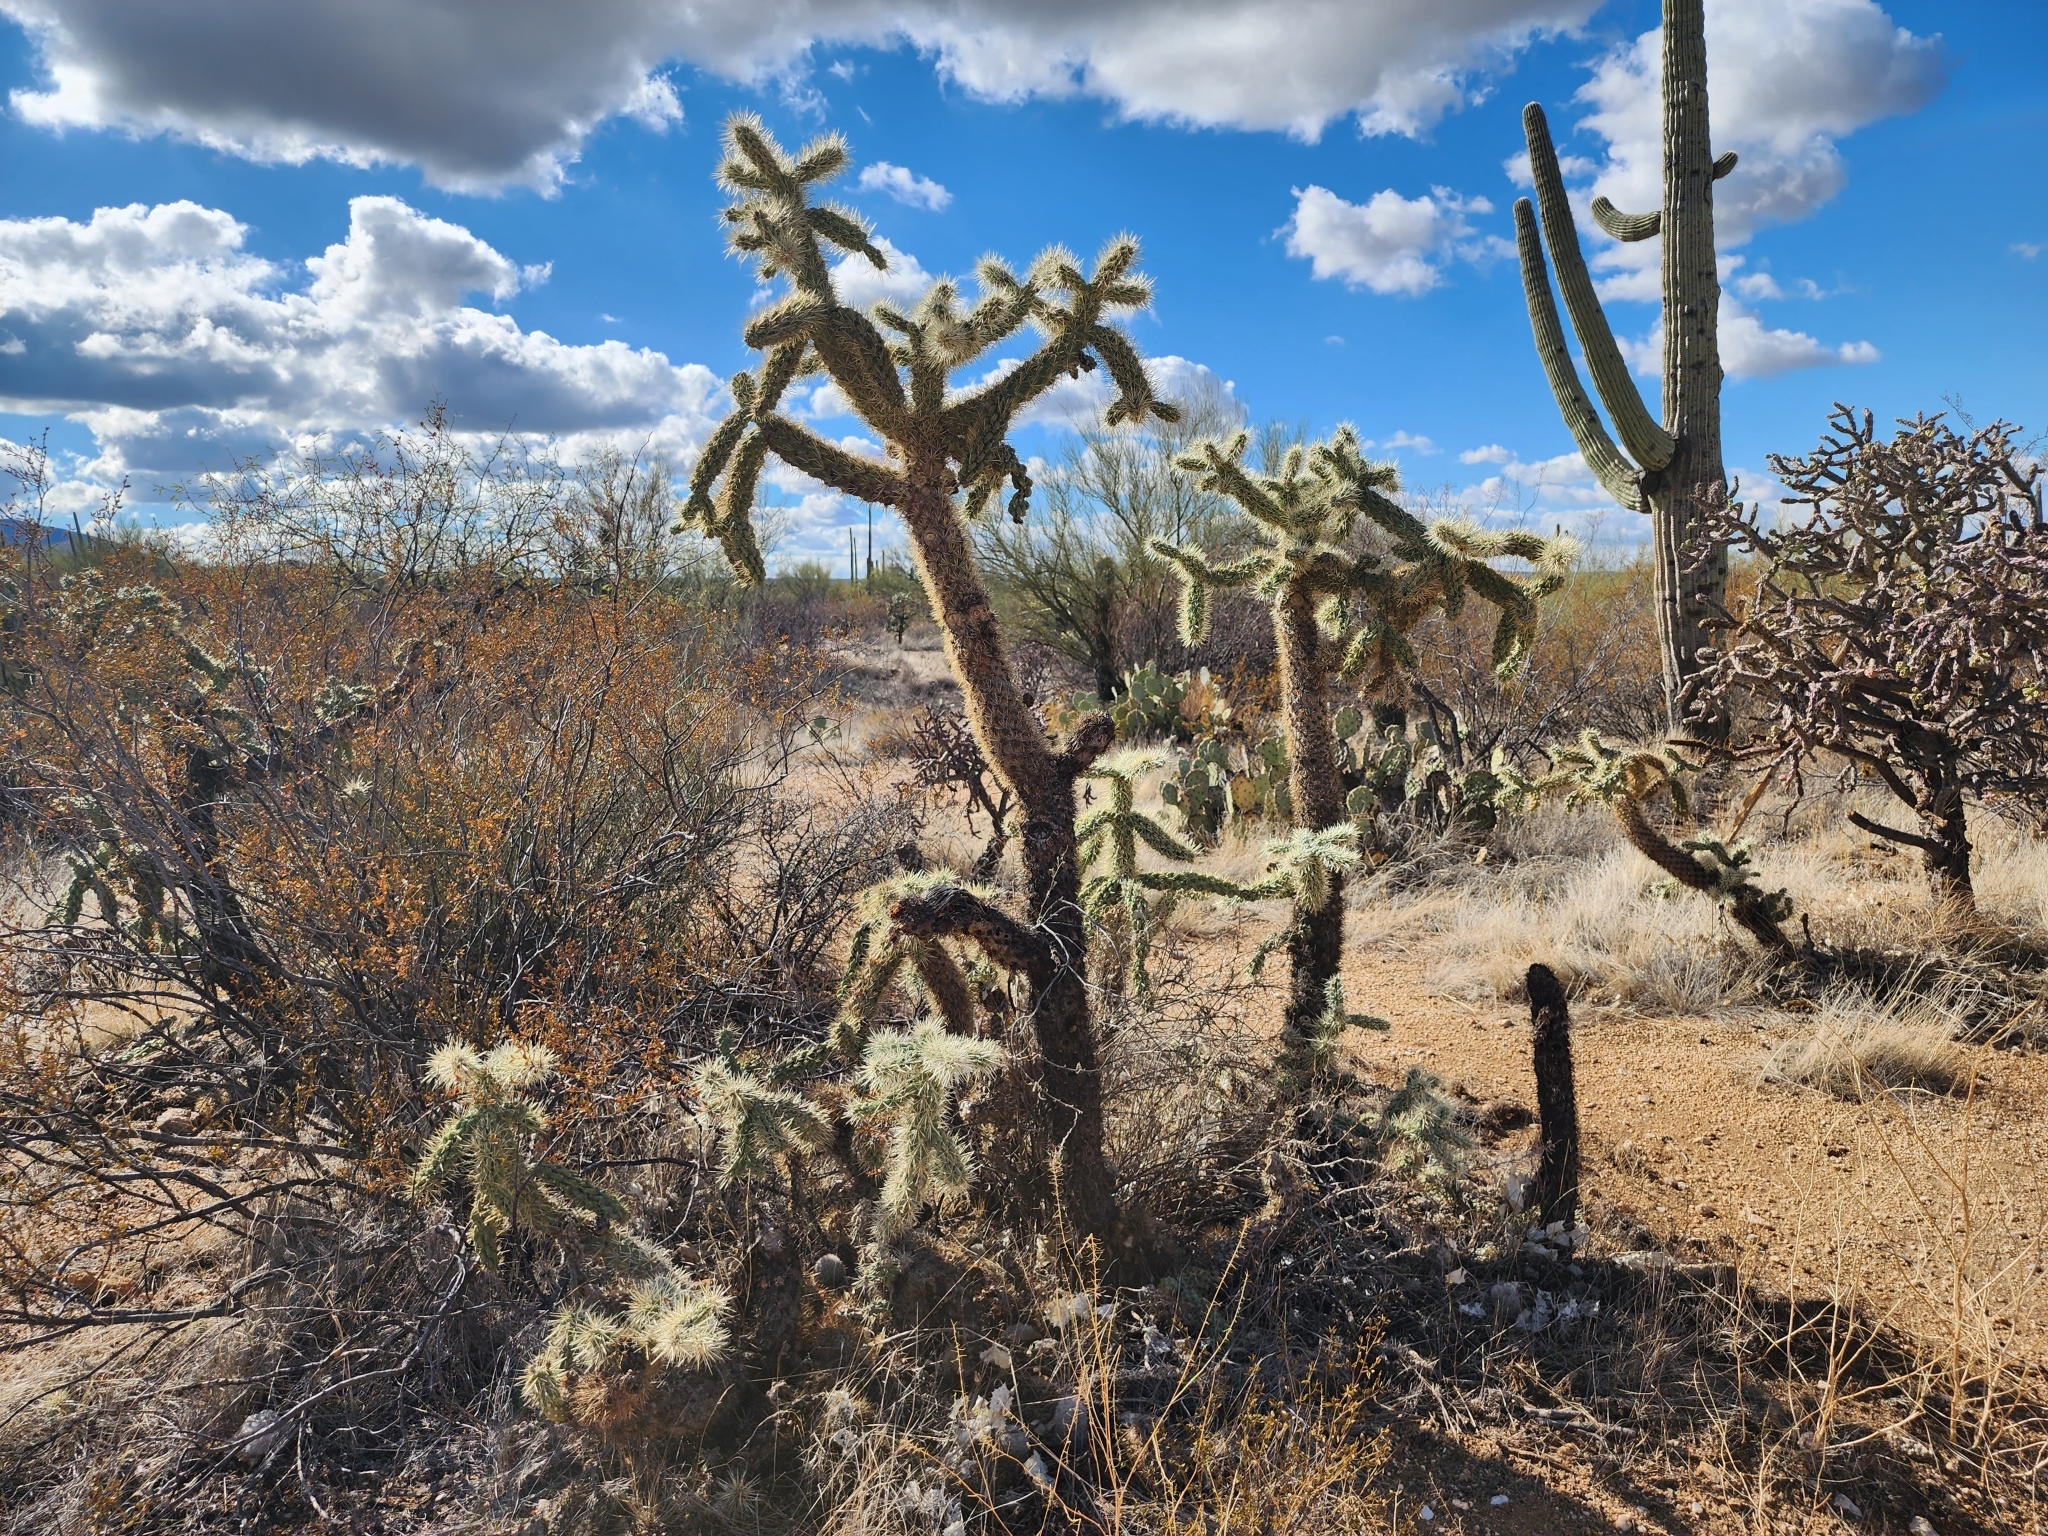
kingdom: Plantae
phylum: Tracheophyta
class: Magnoliopsida
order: Caryophyllales
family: Cactaceae
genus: Cylindropuntia
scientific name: Cylindropuntia fulgida
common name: Jumping cholla
